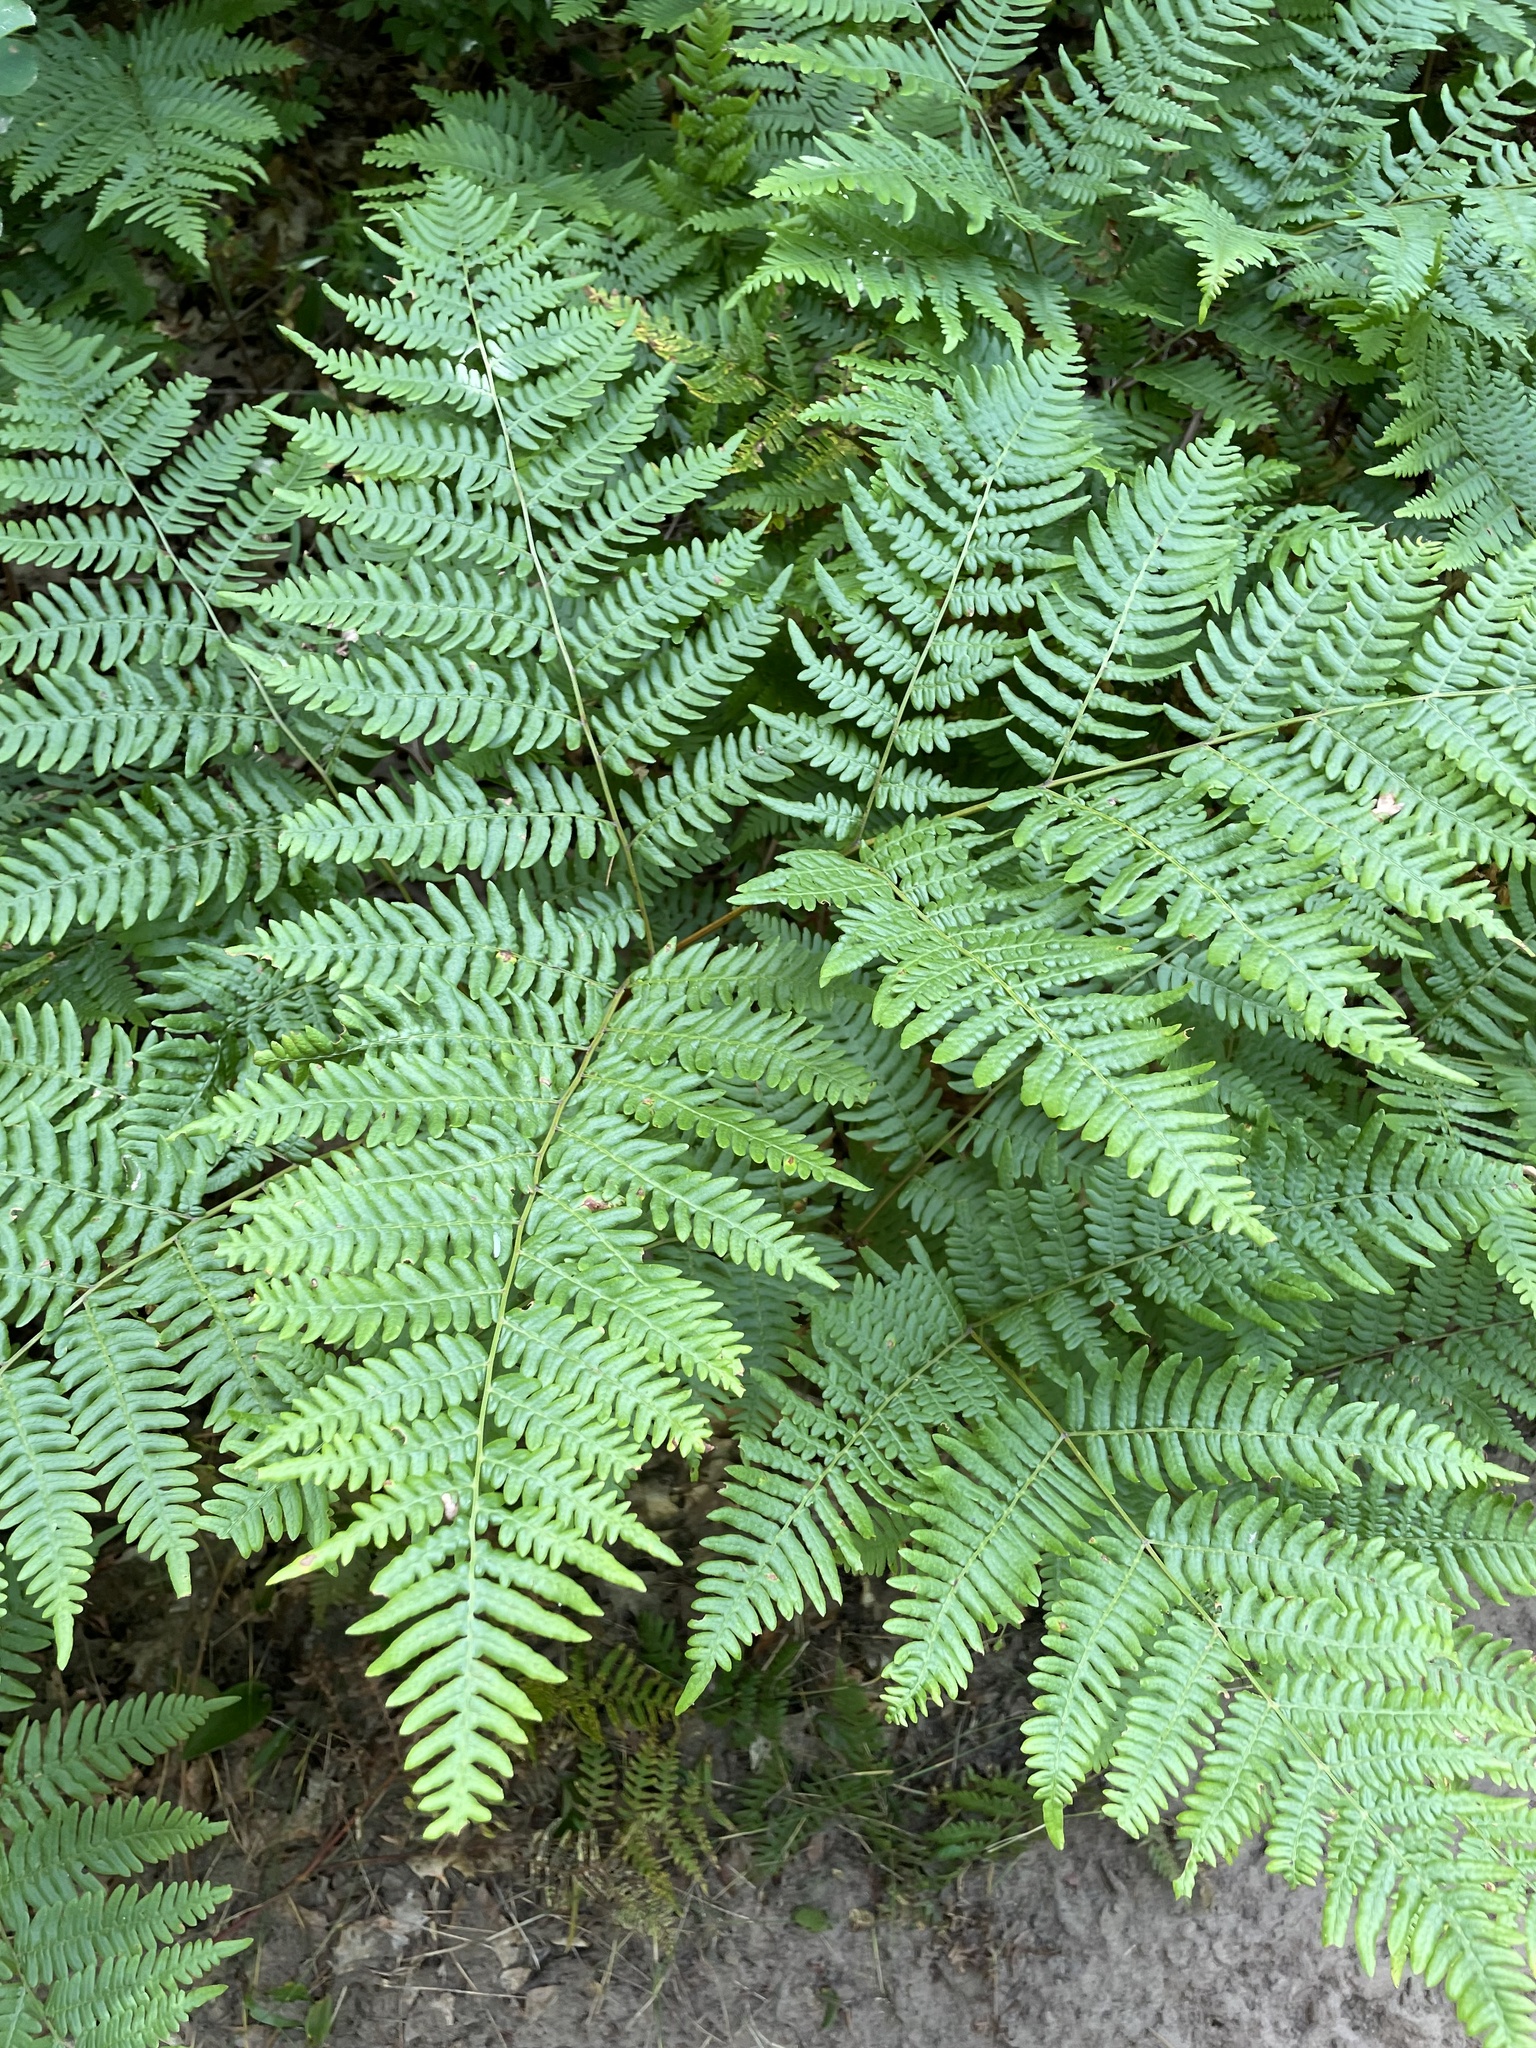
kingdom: Plantae
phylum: Tracheophyta
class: Polypodiopsida
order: Polypodiales
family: Dennstaedtiaceae
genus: Pteridium
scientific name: Pteridium aquilinum
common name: Bracken
